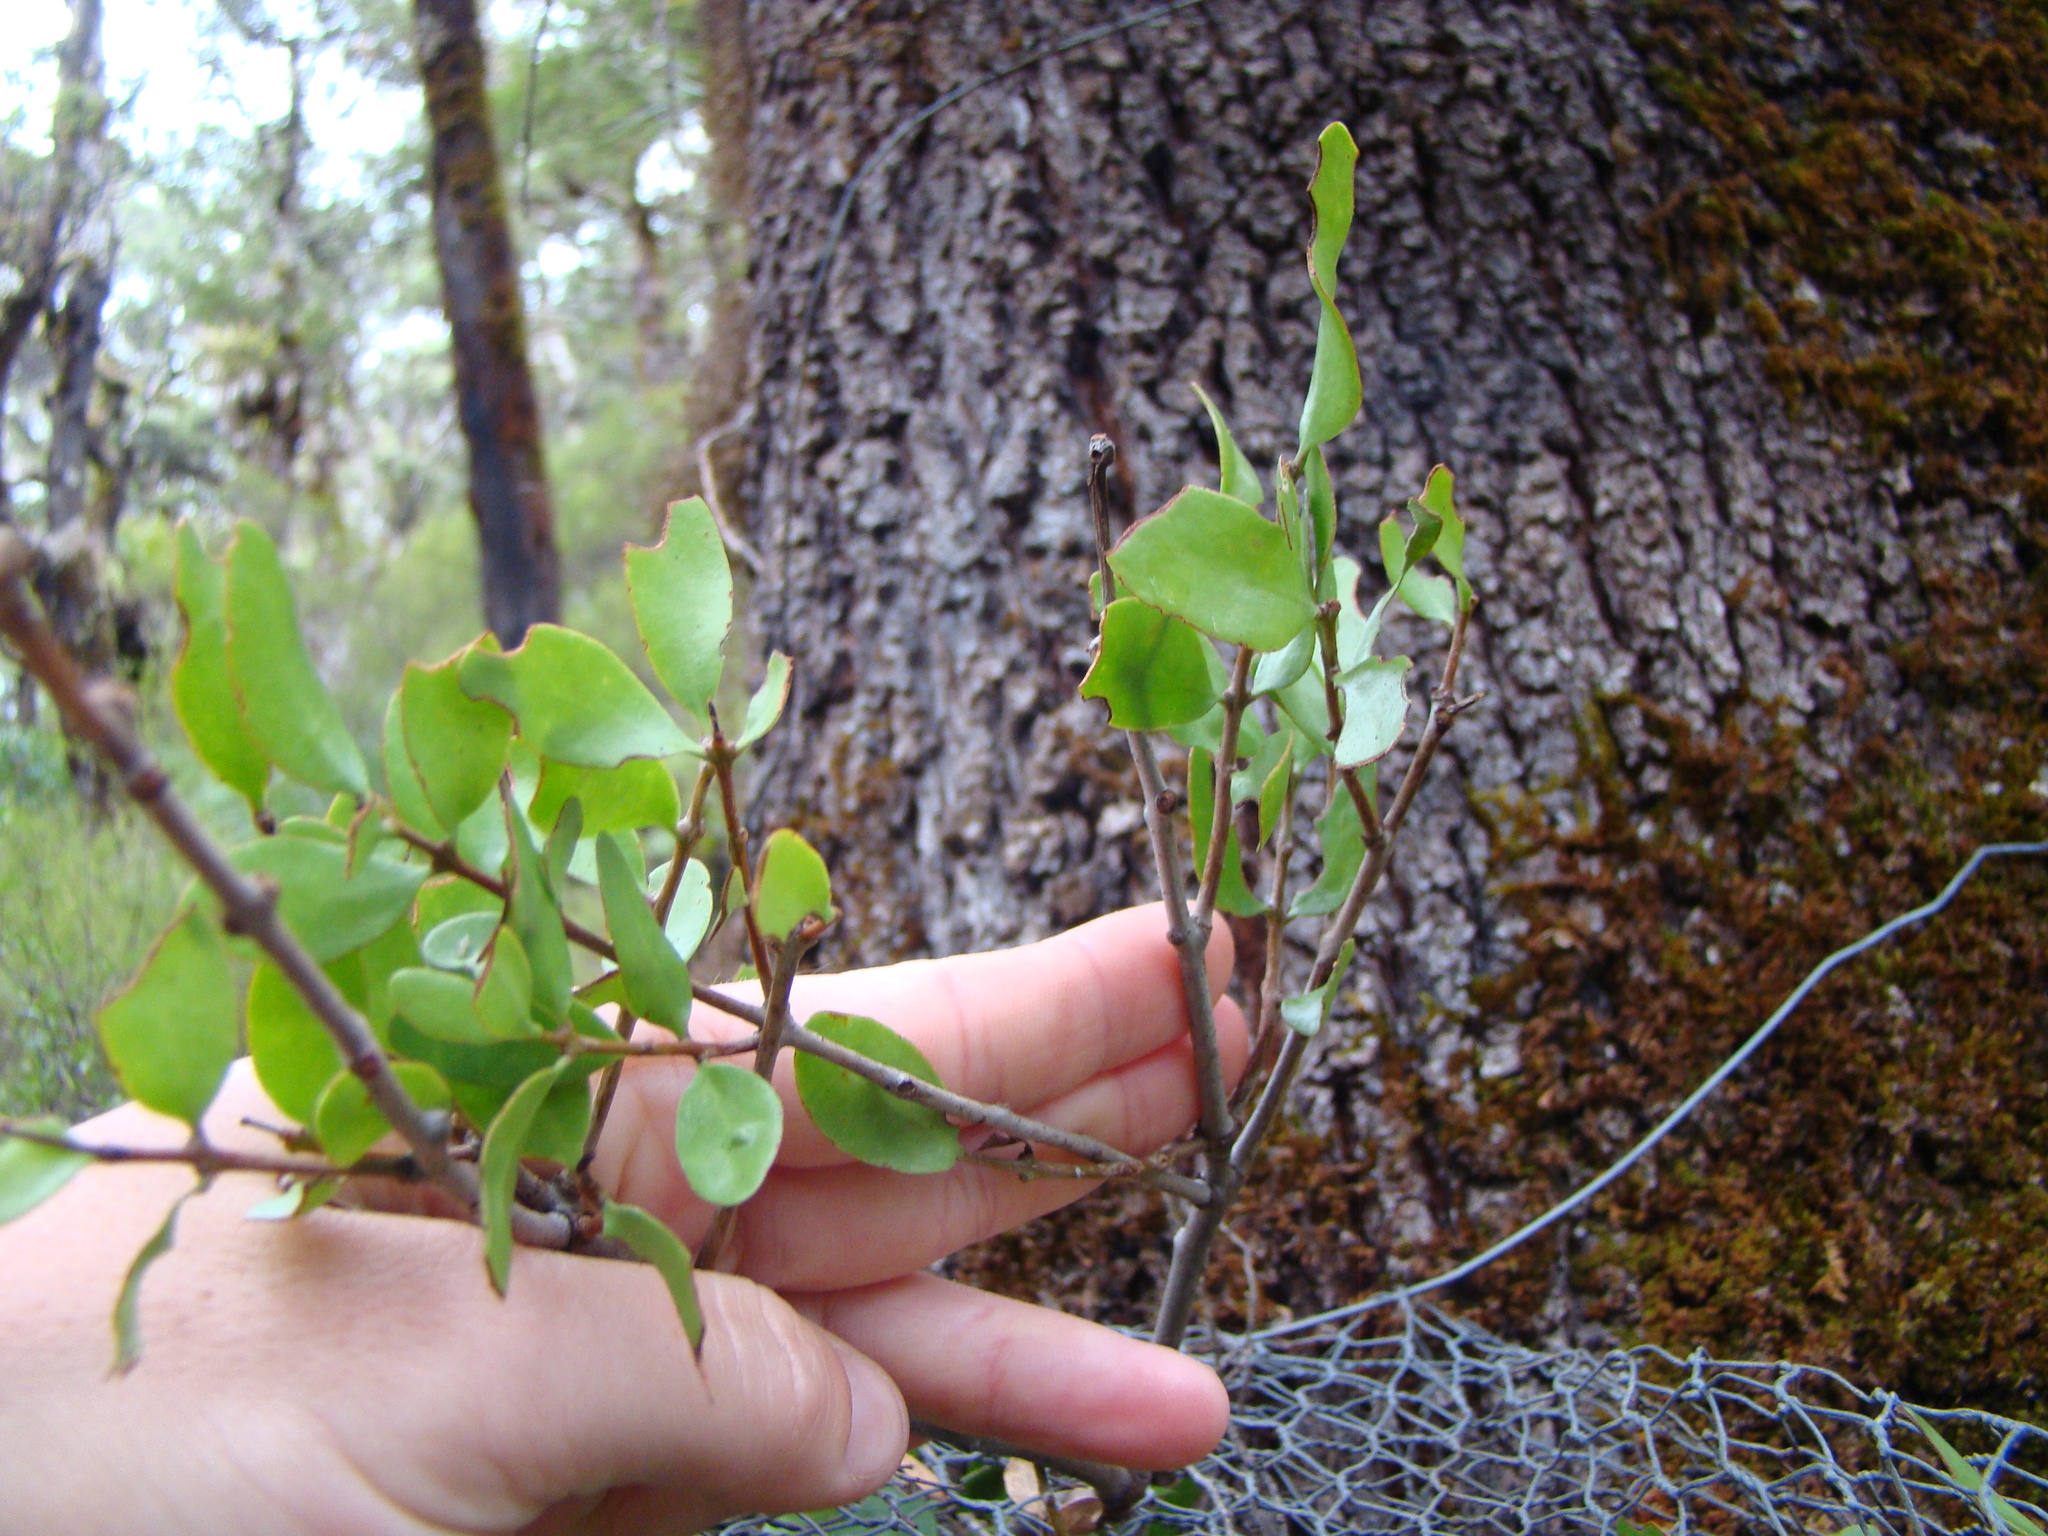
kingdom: Plantae
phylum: Tracheophyta
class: Magnoliopsida
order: Santalales
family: Loranthaceae
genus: Peraxilla
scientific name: Peraxilla tetrapetala
